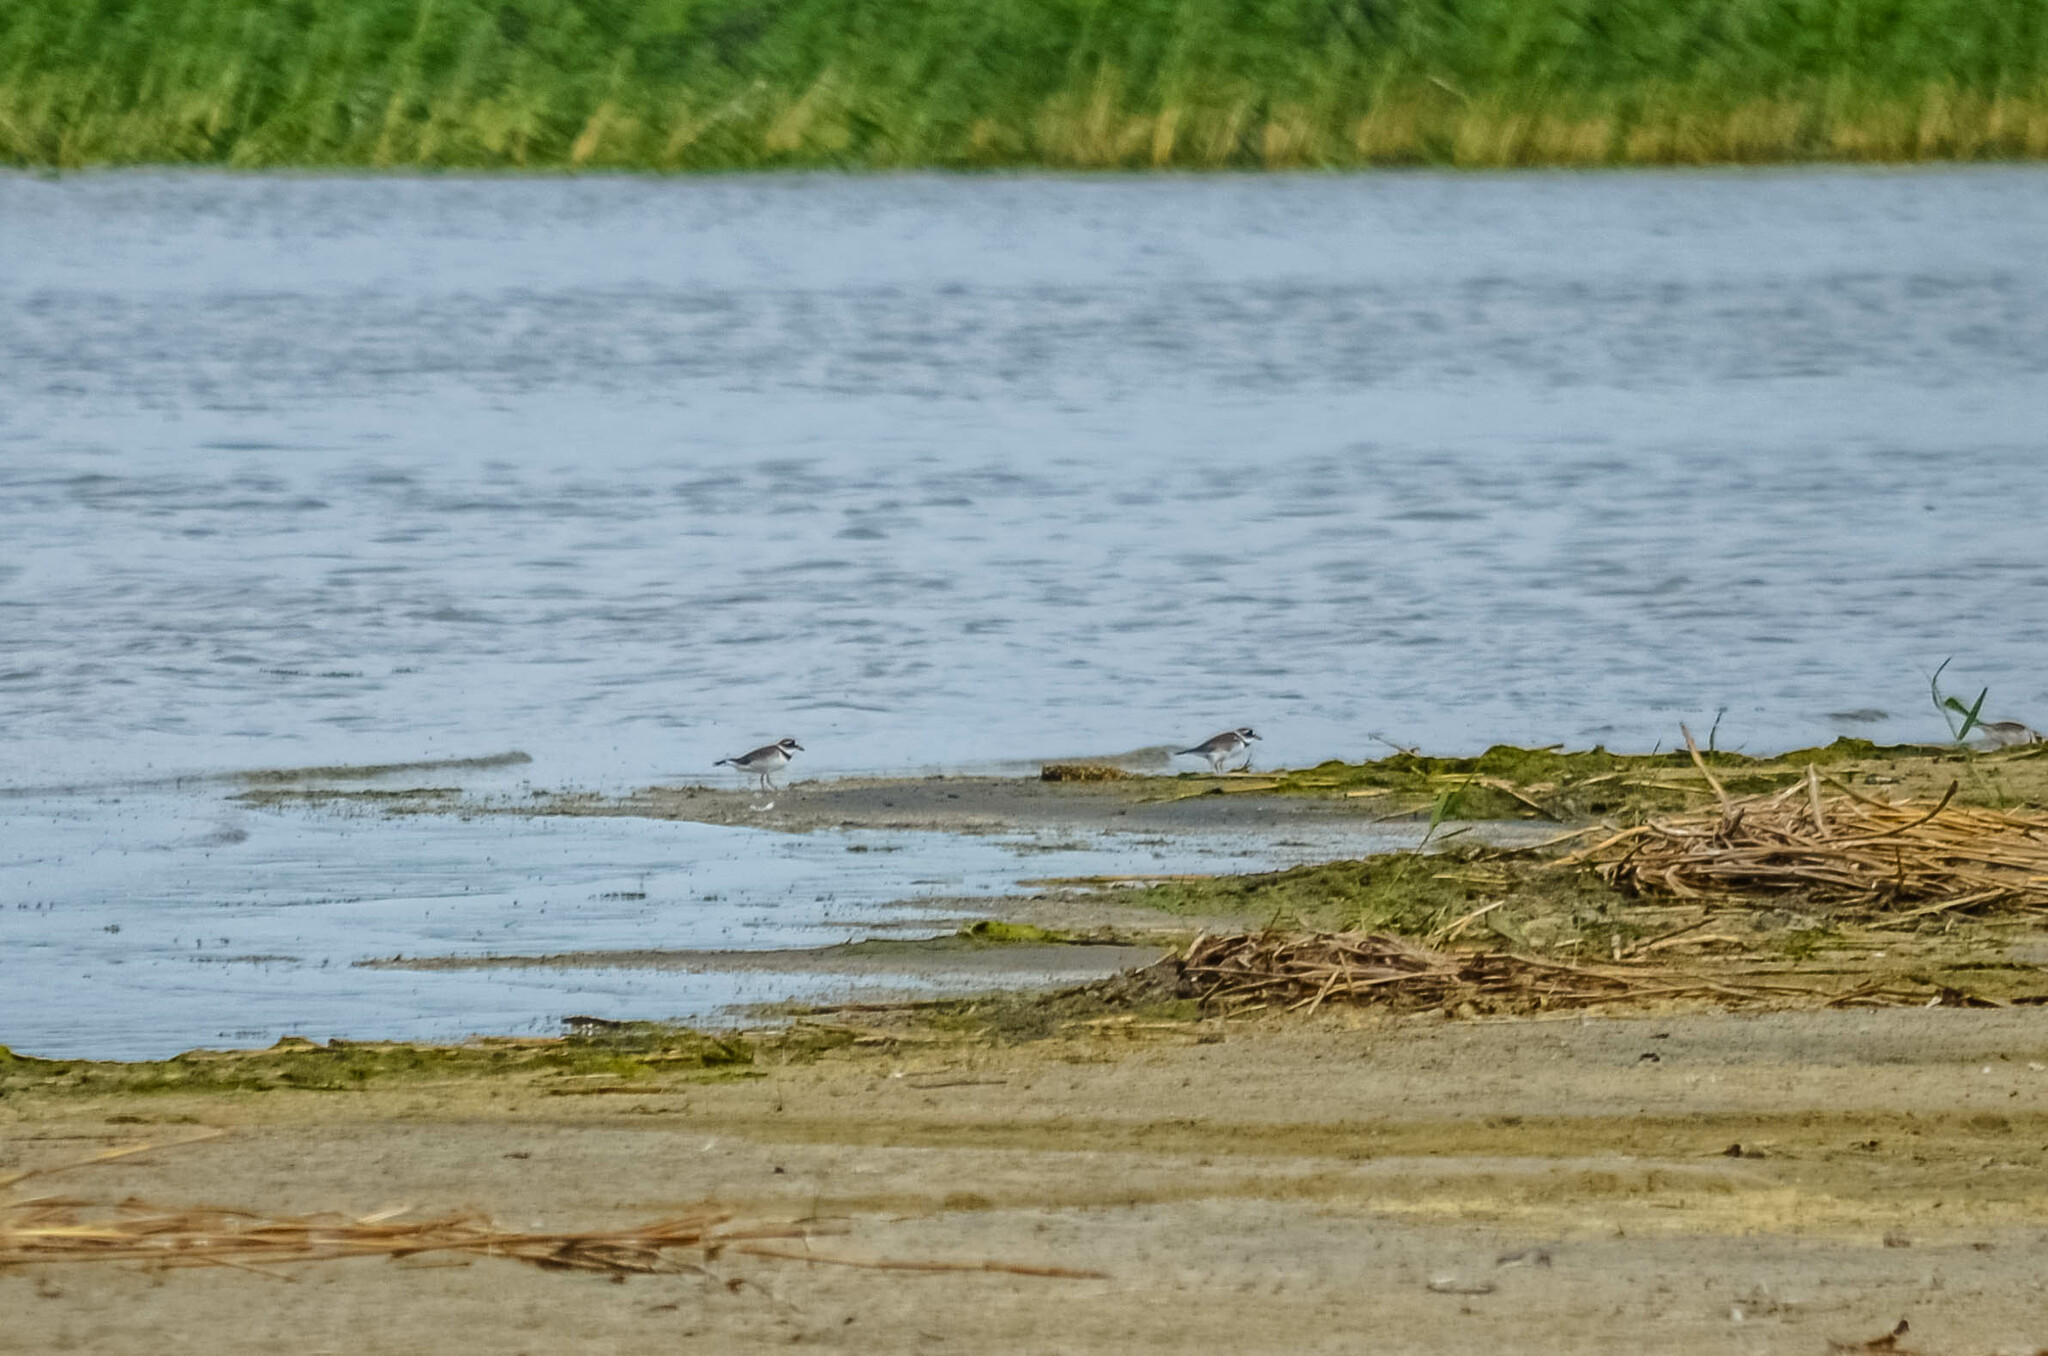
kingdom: Animalia
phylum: Chordata
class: Aves
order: Charadriiformes
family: Charadriidae
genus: Charadrius
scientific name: Charadrius hiaticula
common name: Common ringed plover
